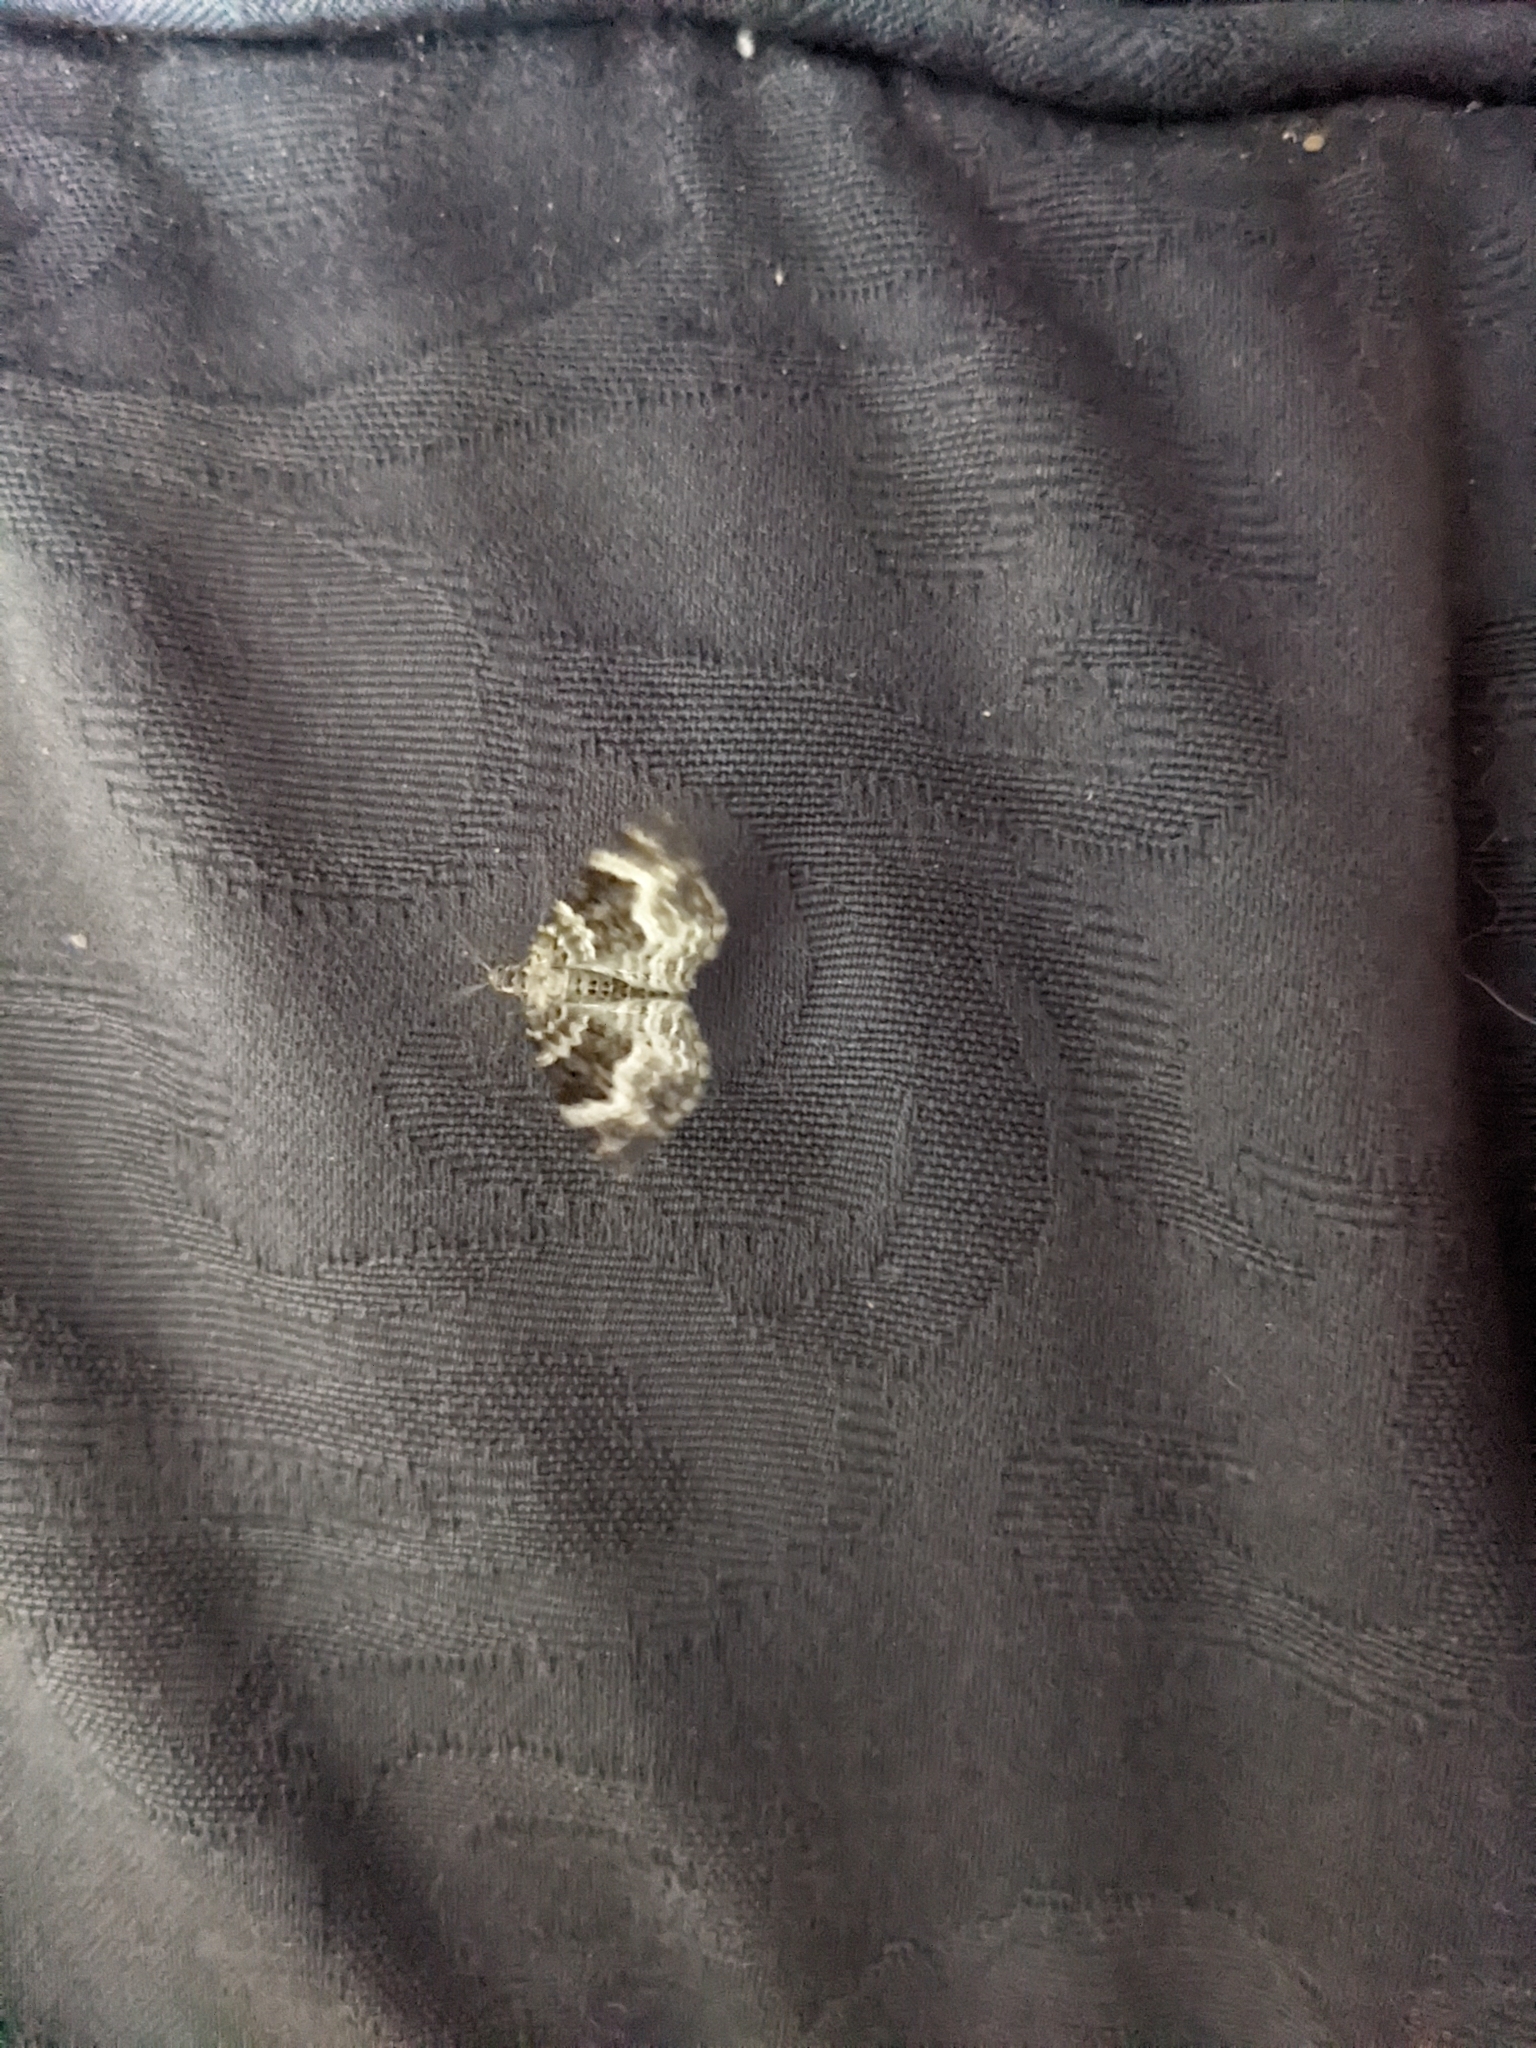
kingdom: Animalia
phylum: Arthropoda
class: Insecta
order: Lepidoptera
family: Geometridae
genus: Epirrhoe
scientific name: Epirrhoe alternata
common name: Common carpet
